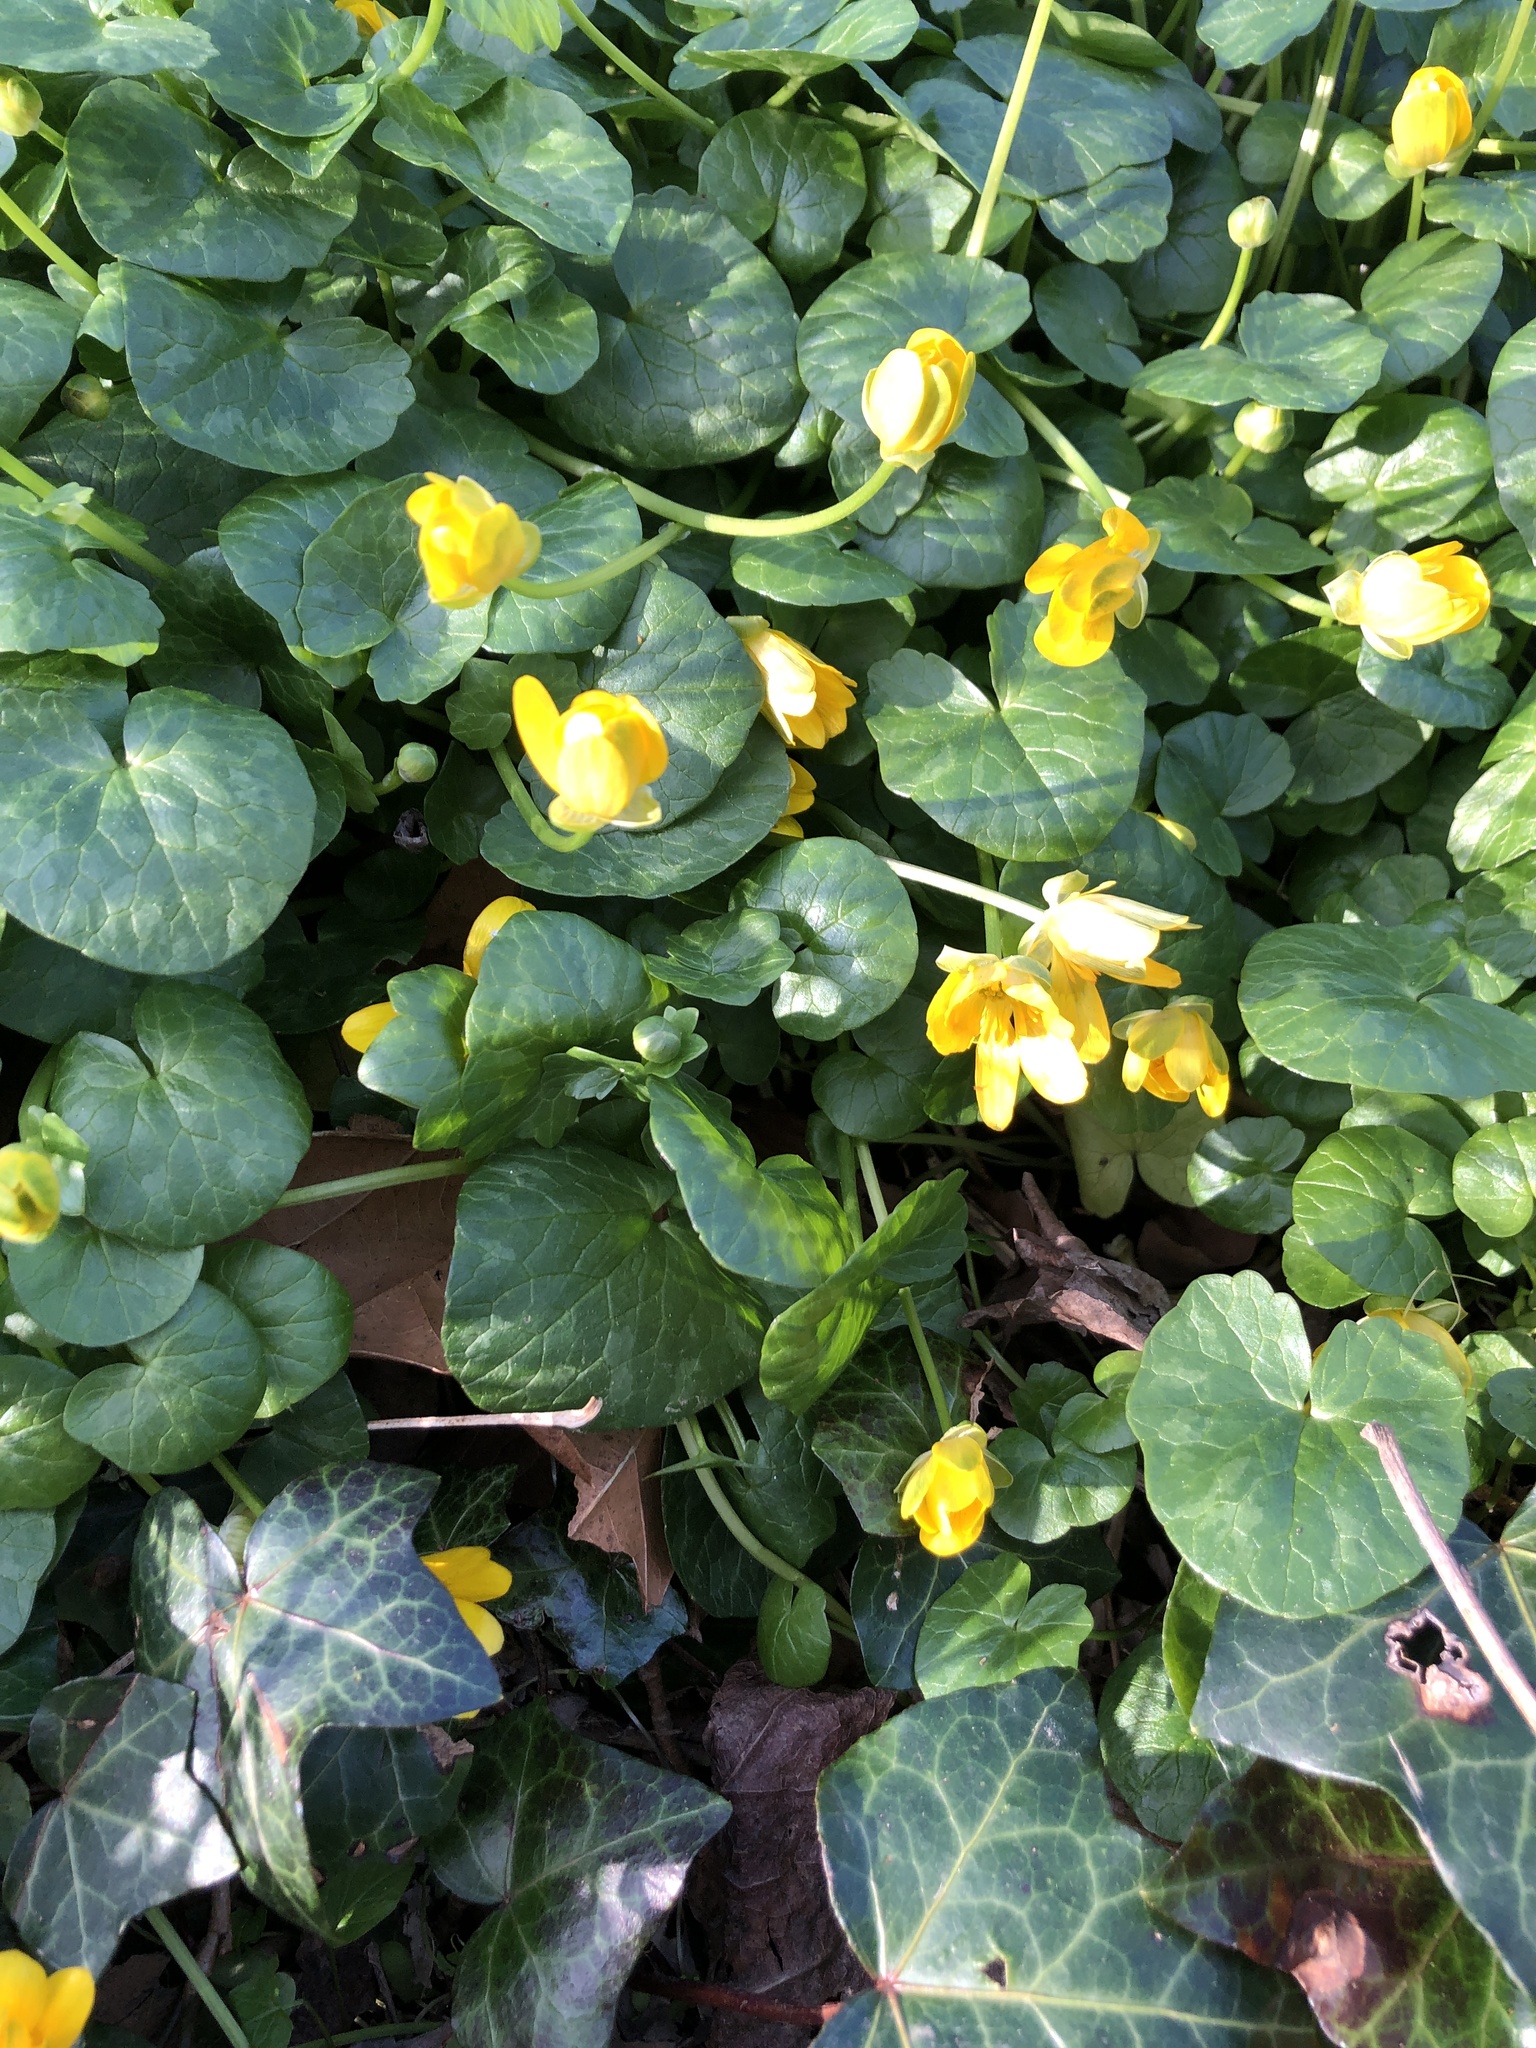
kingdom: Plantae
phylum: Tracheophyta
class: Magnoliopsida
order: Ranunculales
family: Ranunculaceae
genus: Ficaria
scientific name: Ficaria verna
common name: Lesser celandine
